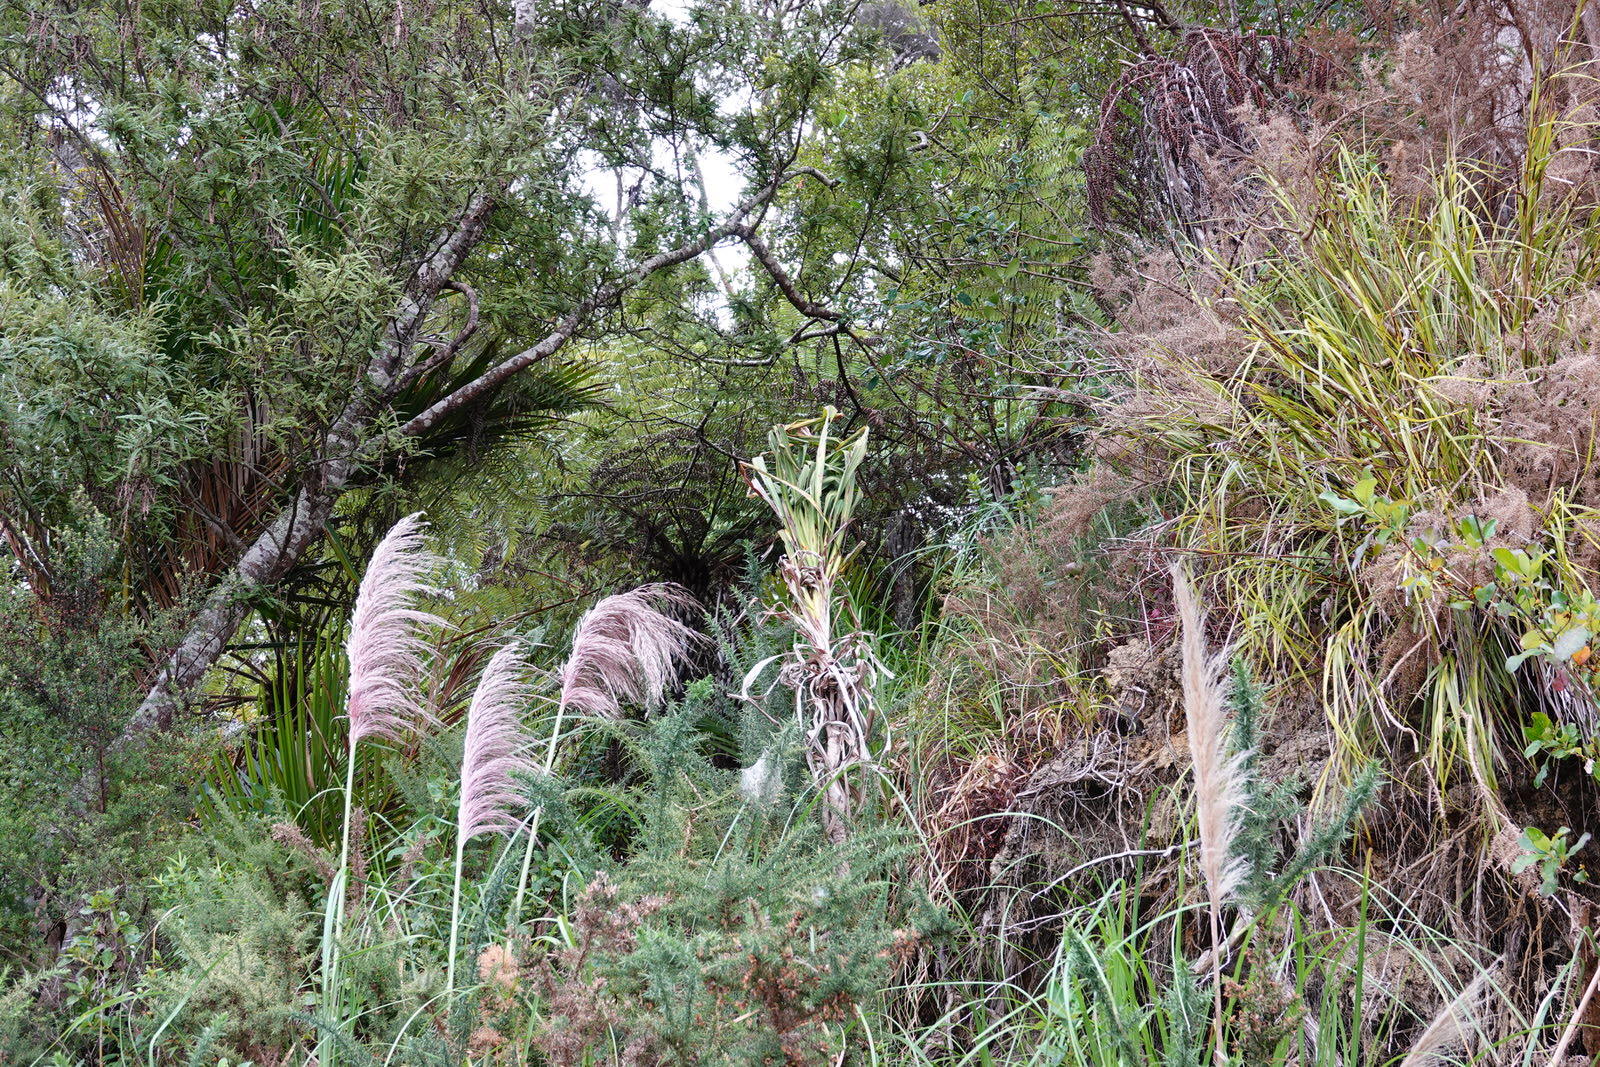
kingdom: Plantae
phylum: Tracheophyta
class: Liliopsida
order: Asparagales
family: Asparagaceae
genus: Cordyline
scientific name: Cordyline banksii
